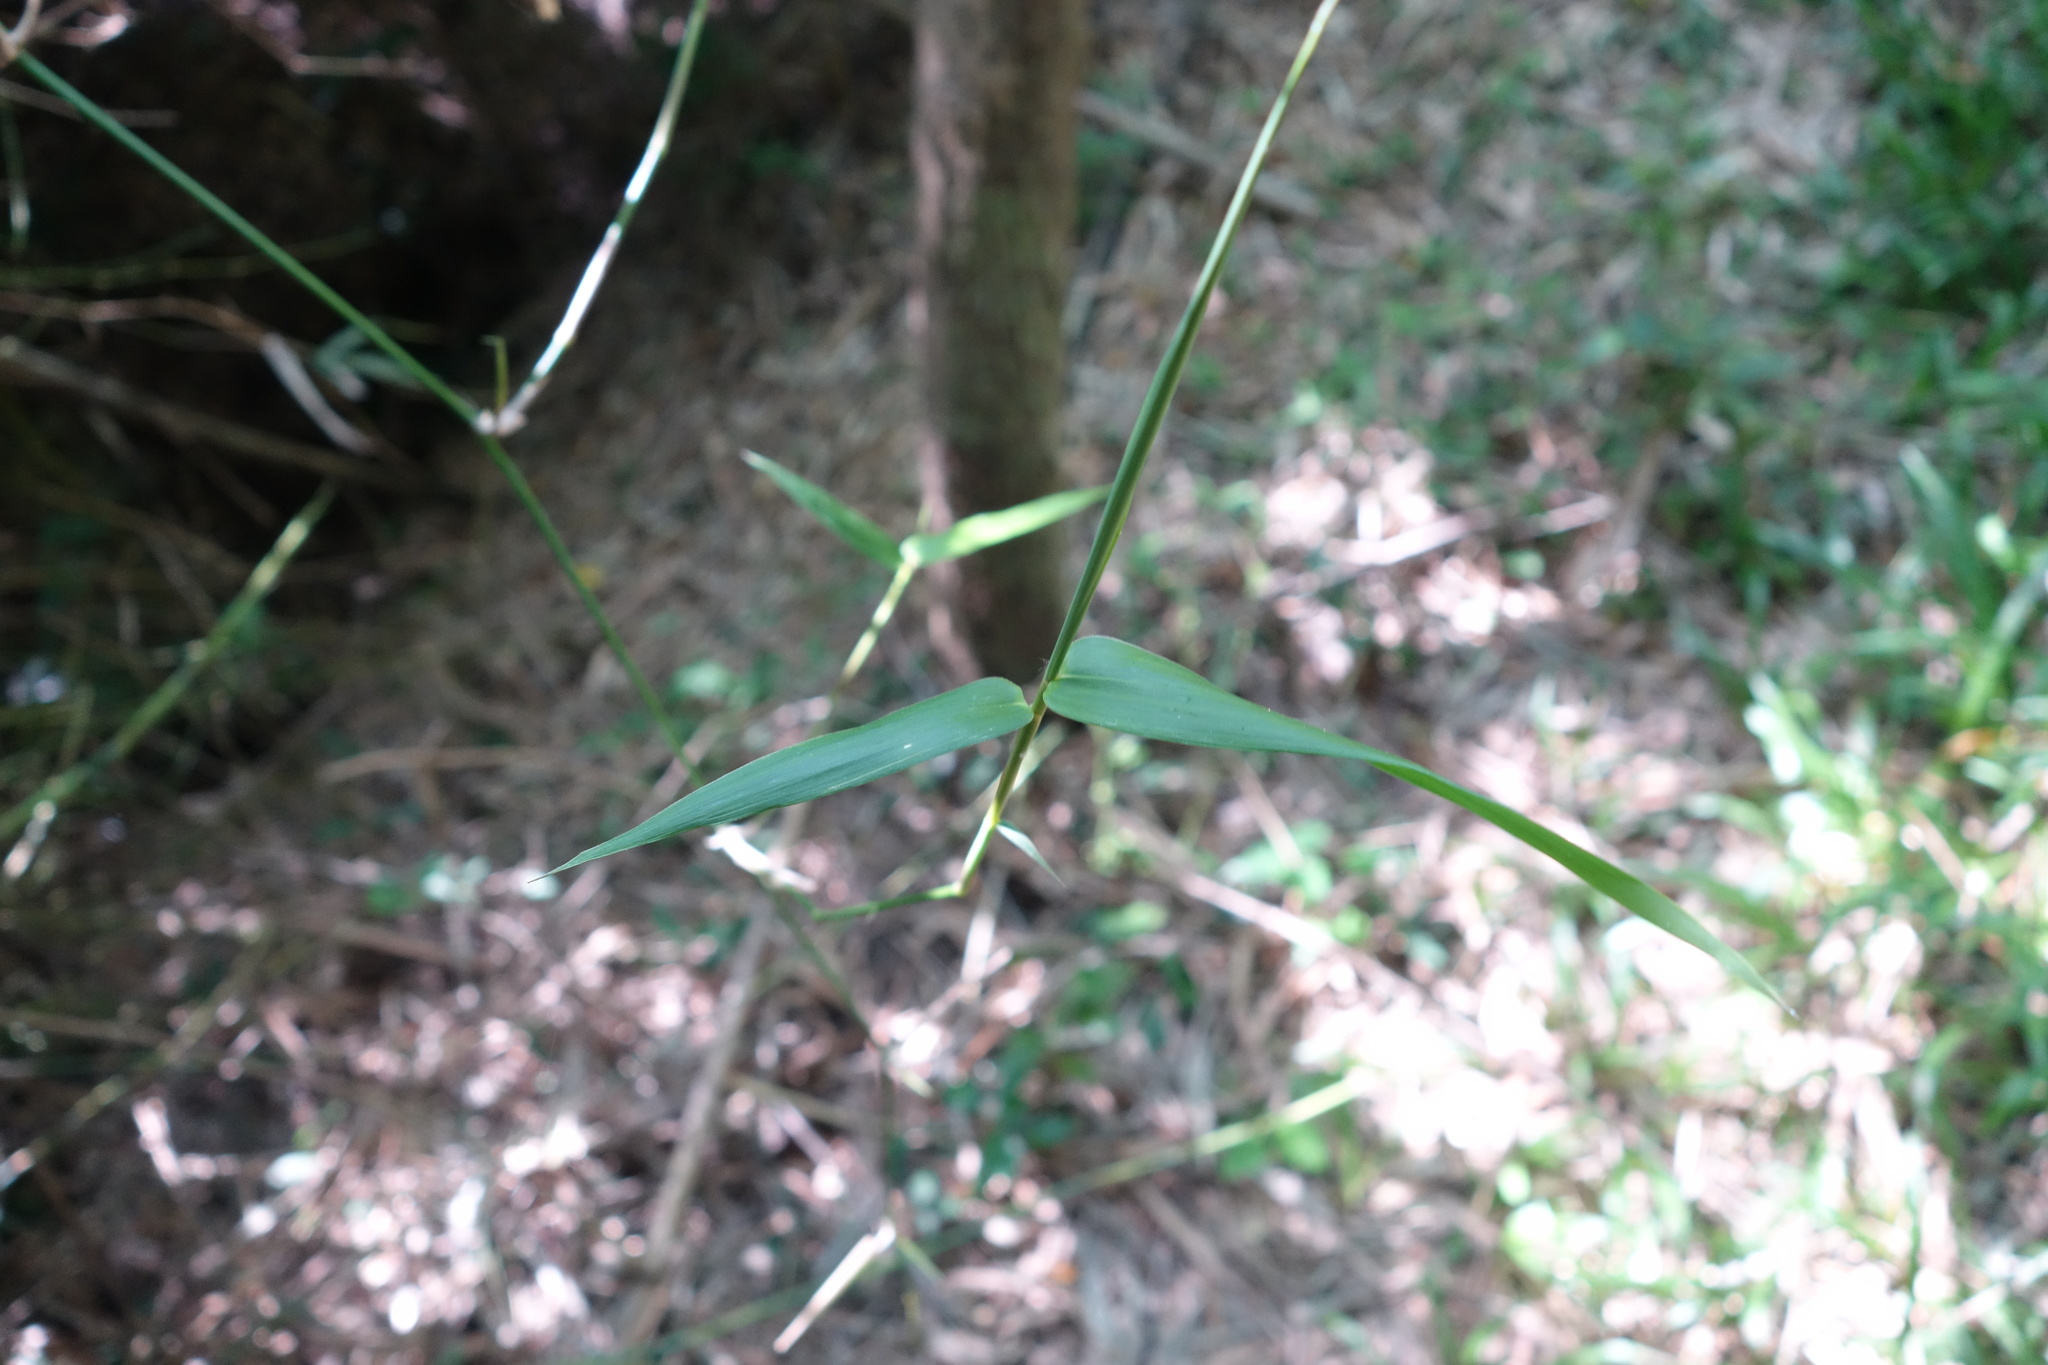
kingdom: Plantae
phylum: Tracheophyta
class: Liliopsida
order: Poales
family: Poaceae
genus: Bambusa
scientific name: Bambusa spinosa
